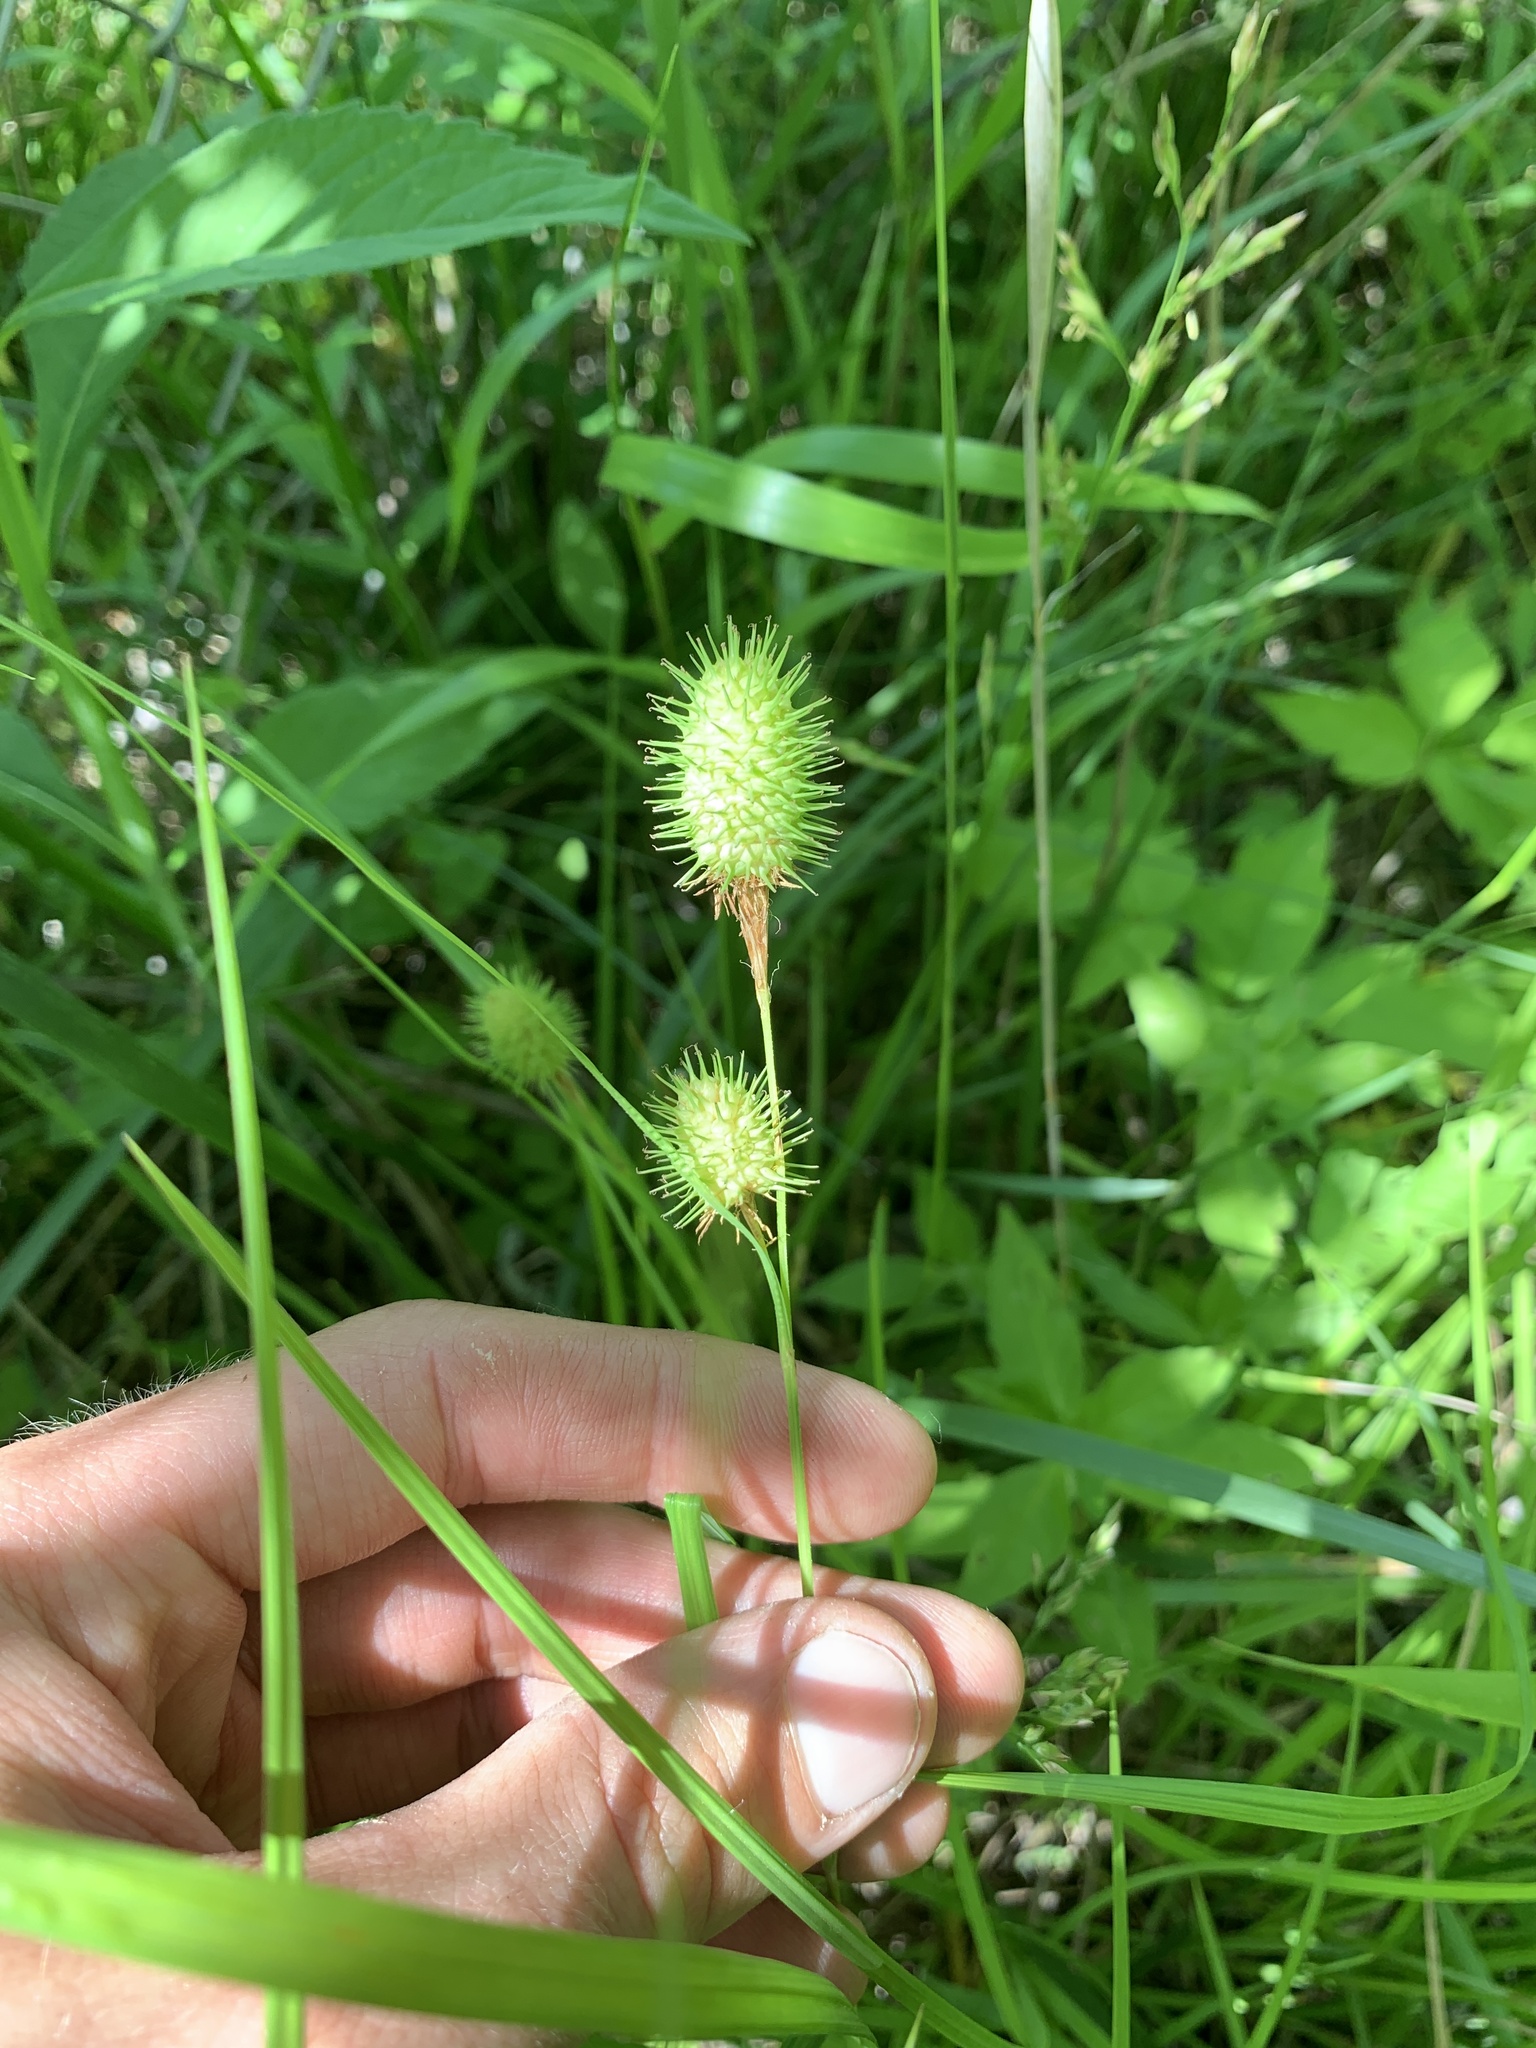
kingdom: Plantae
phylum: Tracheophyta
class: Liliopsida
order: Poales
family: Cyperaceae
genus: Carex
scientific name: Carex squarrosa
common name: Narrow-leaved cattail sedge
